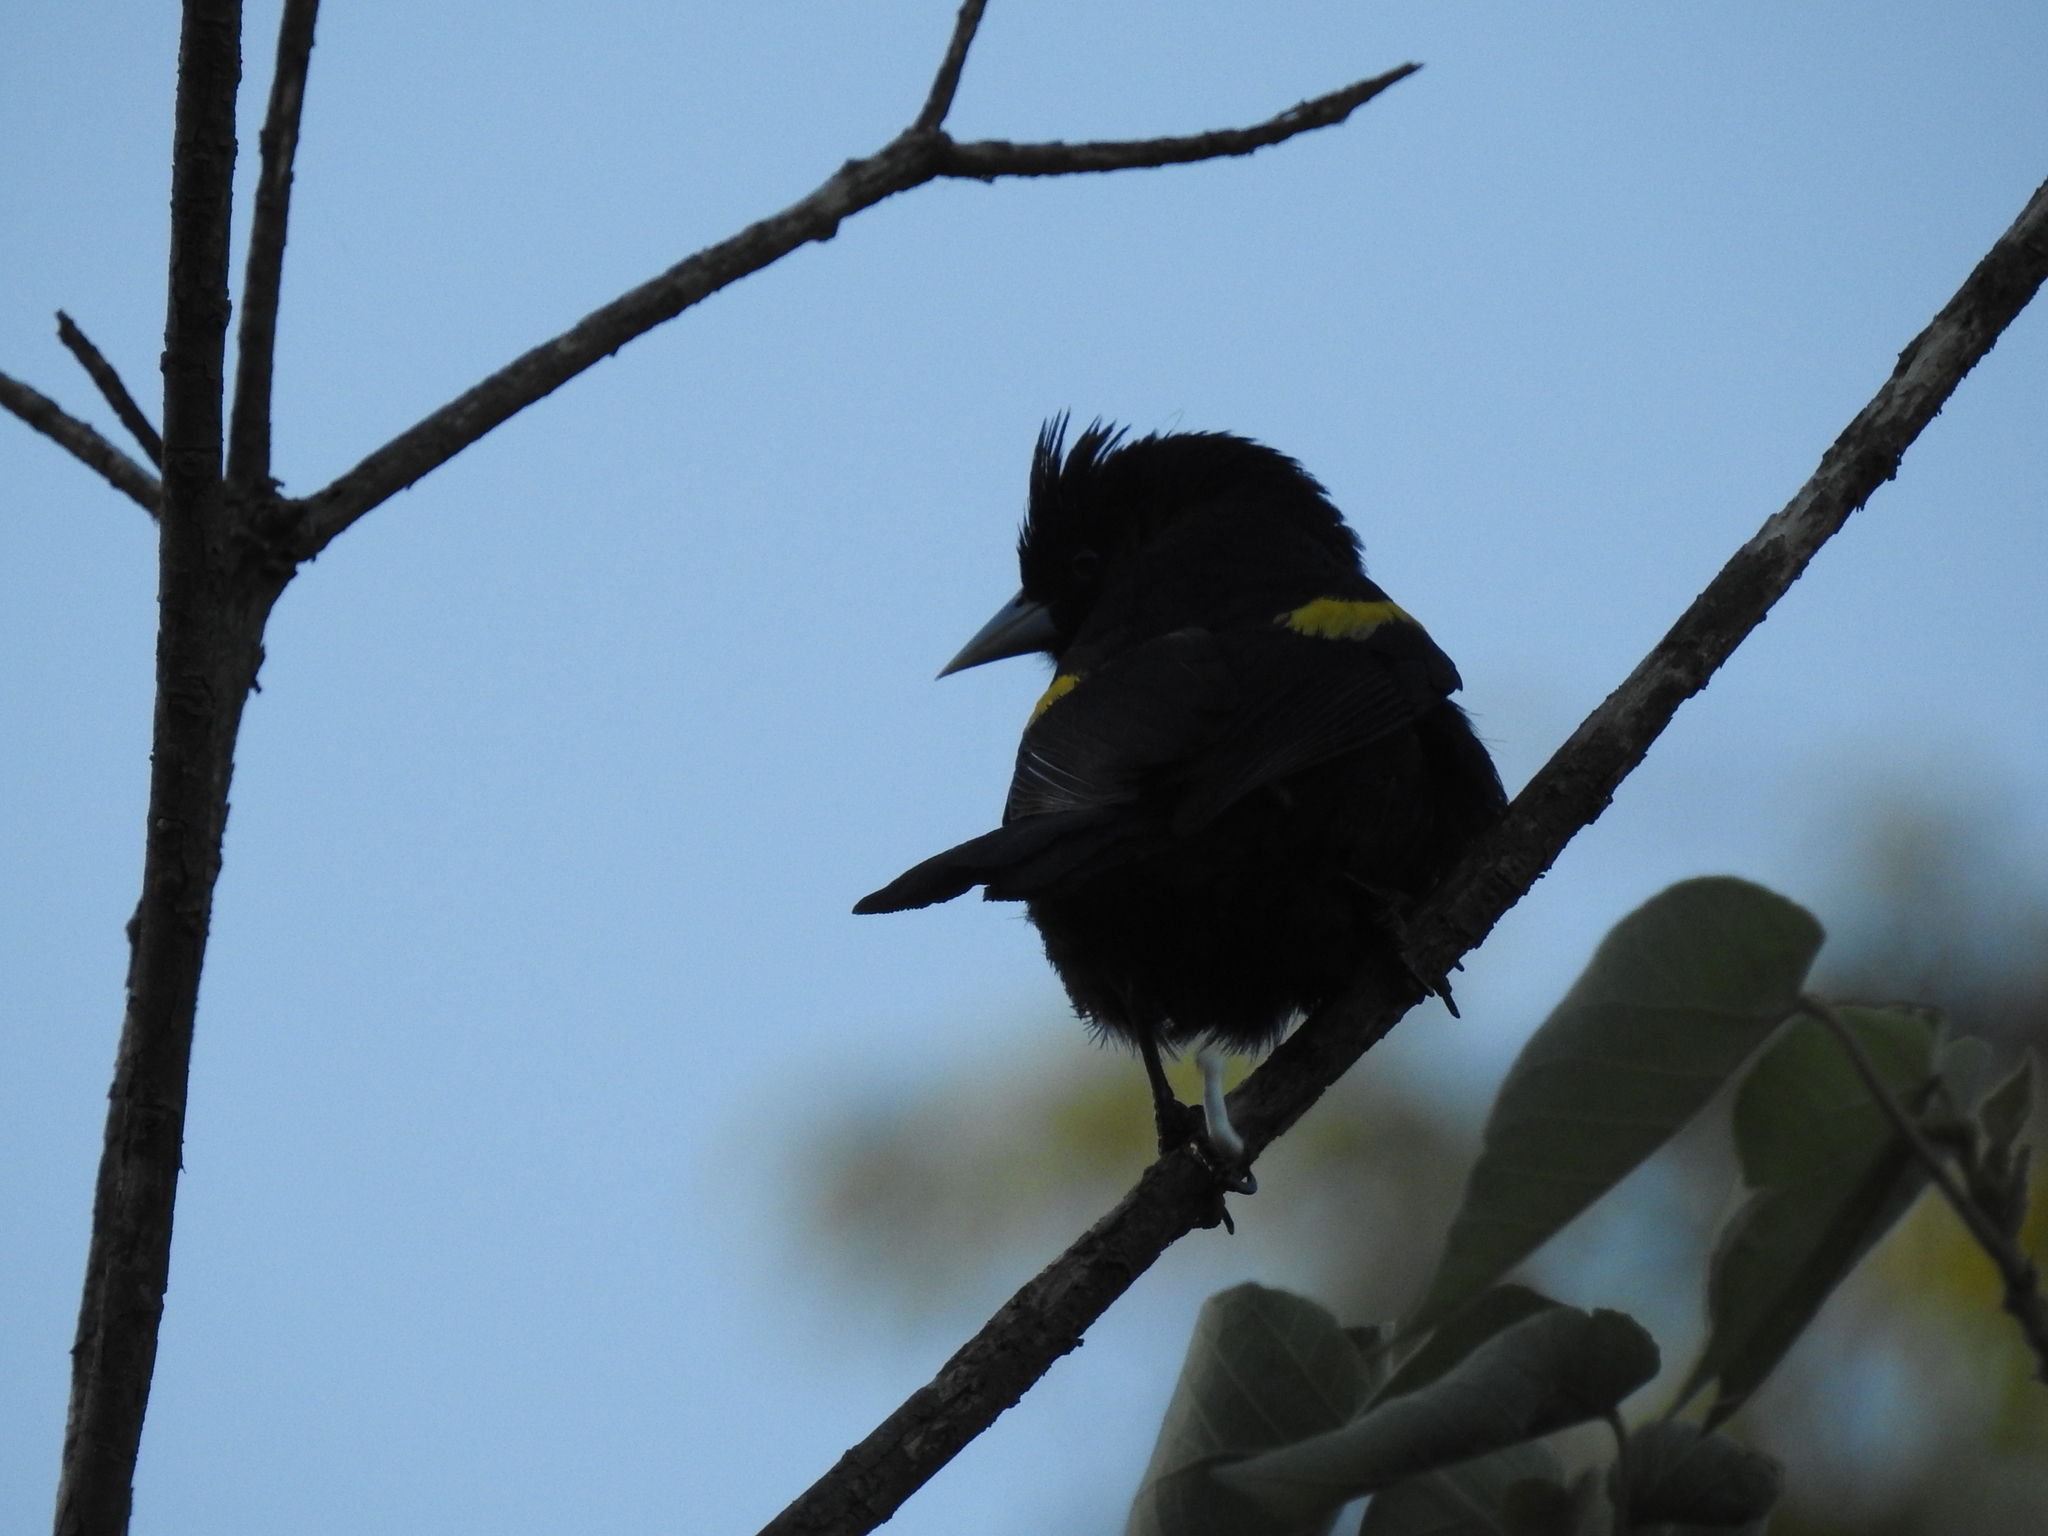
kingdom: Animalia
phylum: Chordata
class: Aves
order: Passeriformes
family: Icteridae
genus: Cacicus
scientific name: Cacicus chrysopterus
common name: Golden-winged cacique
